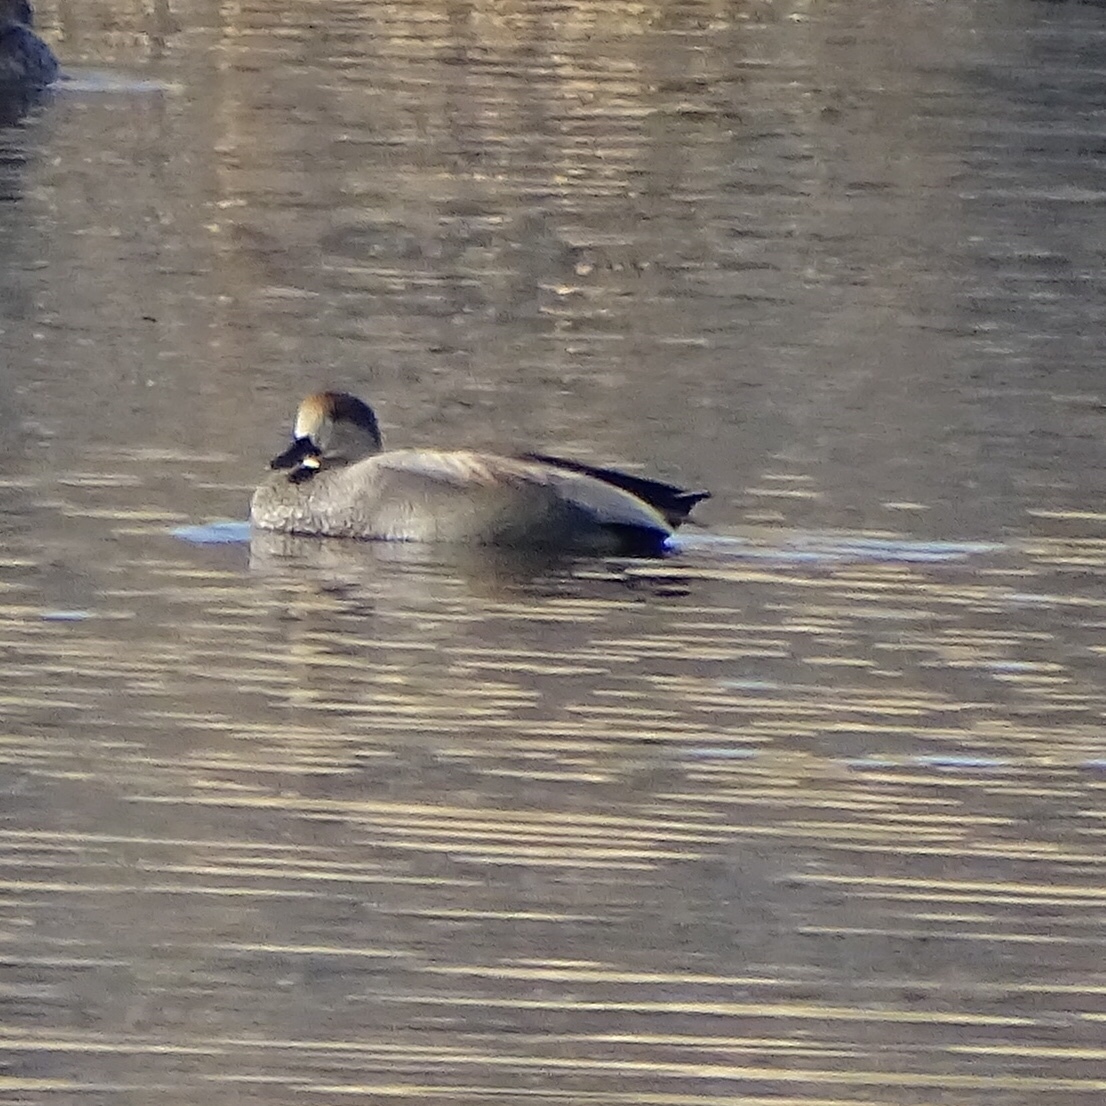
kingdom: Animalia
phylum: Chordata
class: Aves
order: Anseriformes
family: Anatidae
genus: Mareca
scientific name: Mareca strepera
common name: Gadwall
